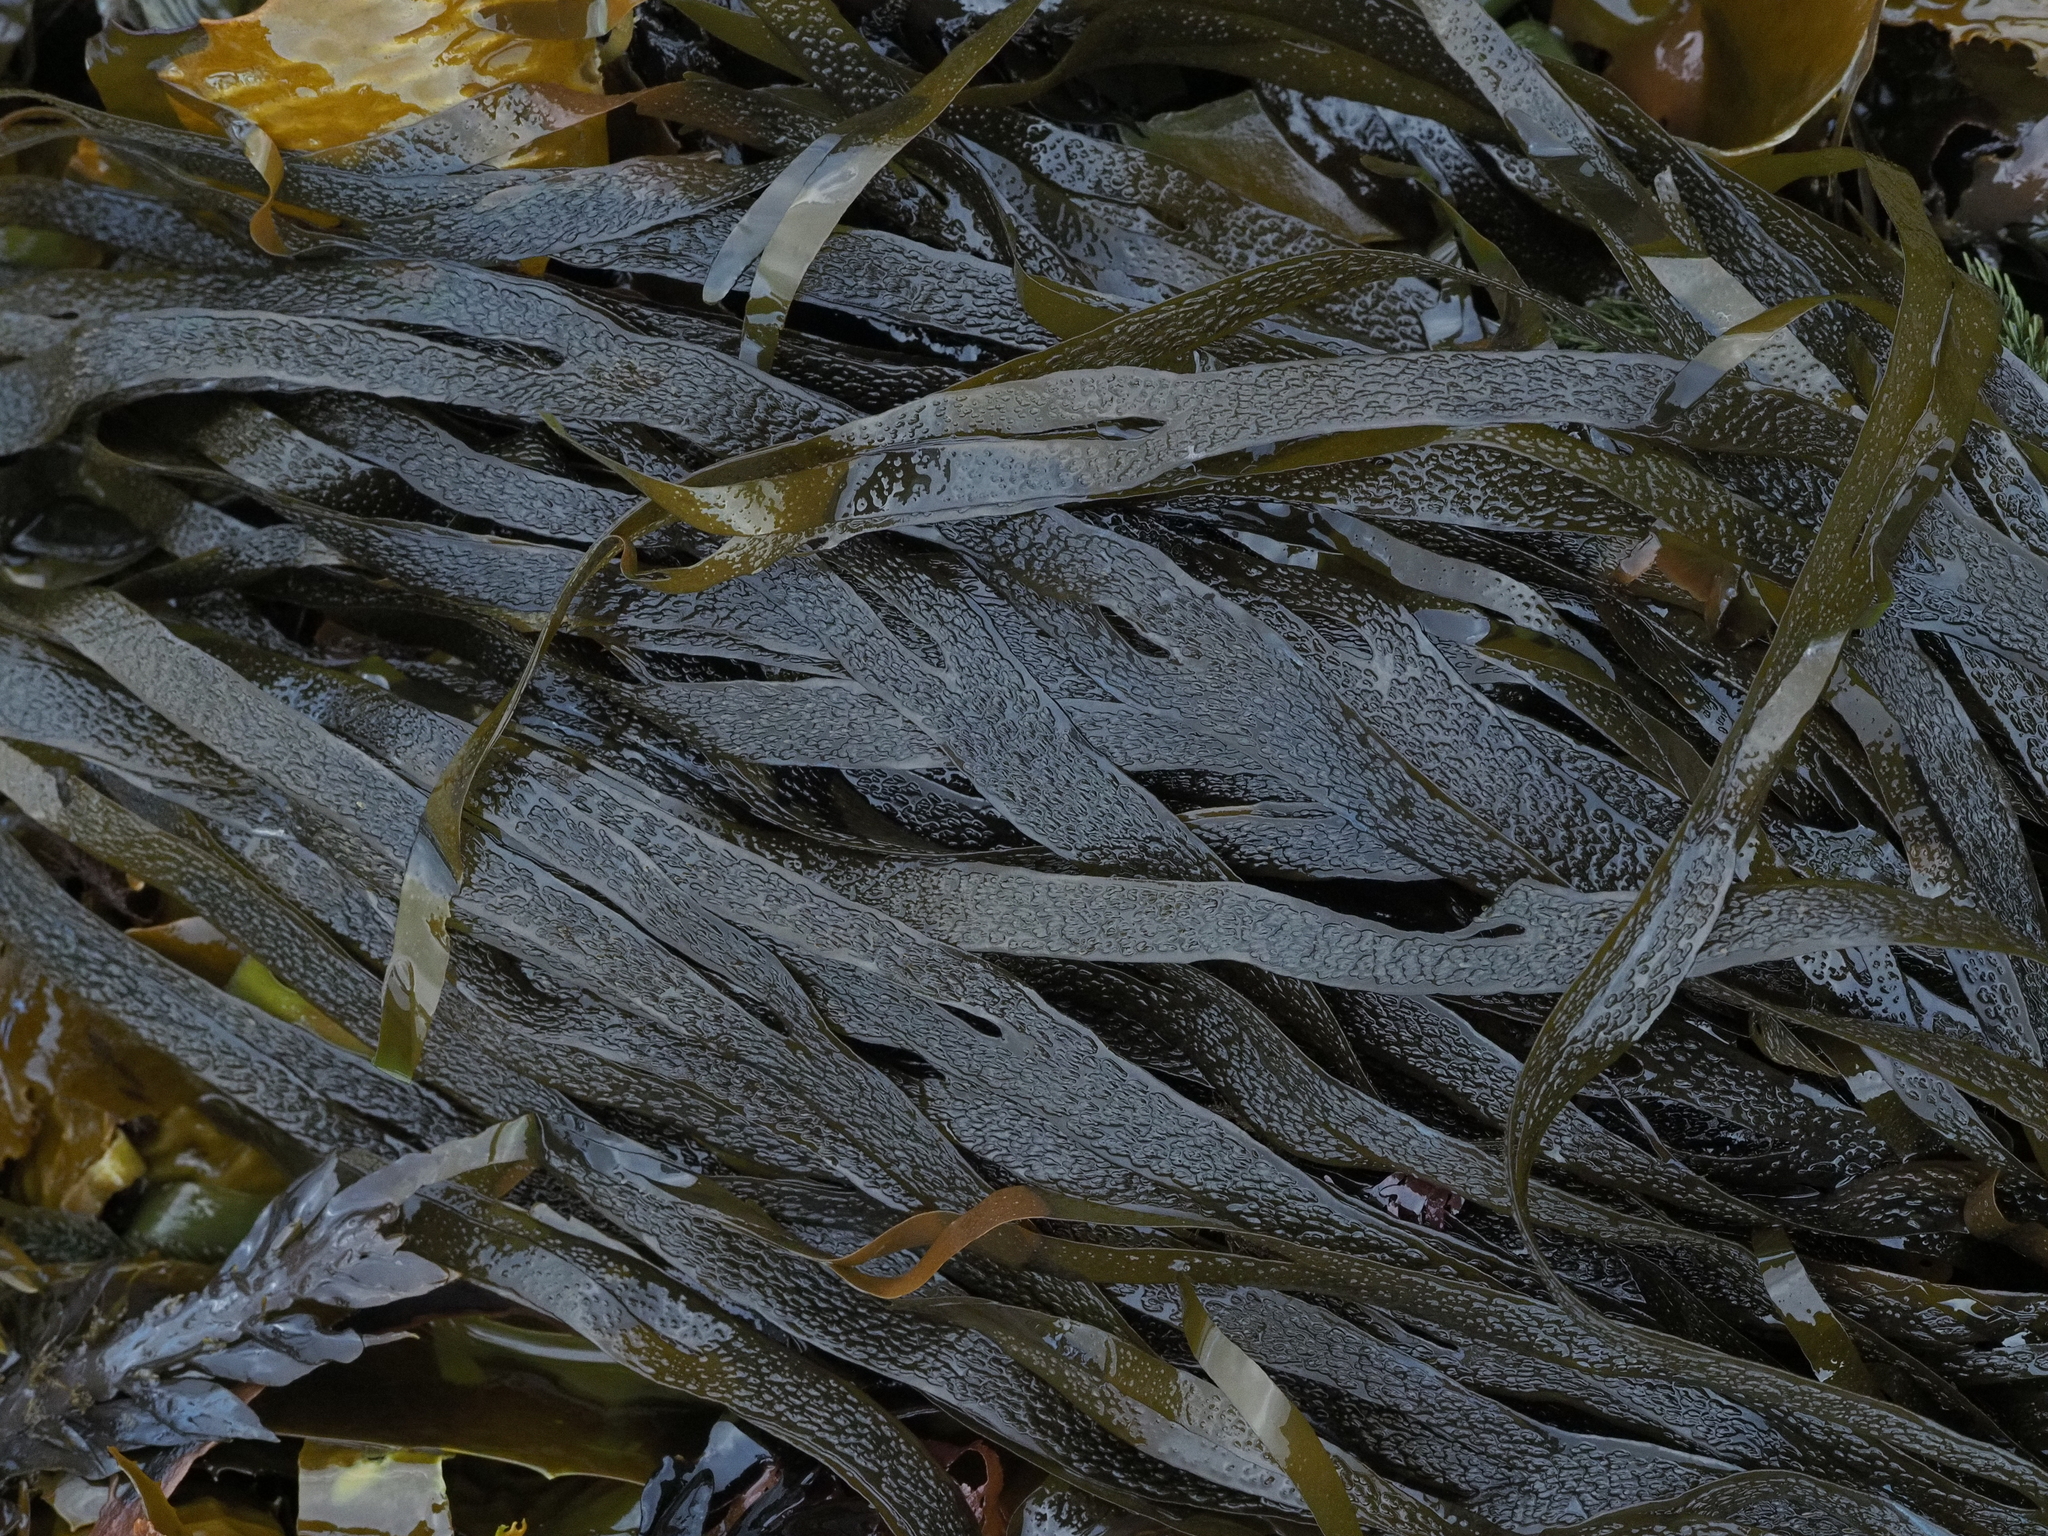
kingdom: Chromista
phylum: Ochrophyta
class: Phaeophyceae
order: Dictyotales
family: Dictyotaceae
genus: Dictyota
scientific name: Dictyota kunthii
